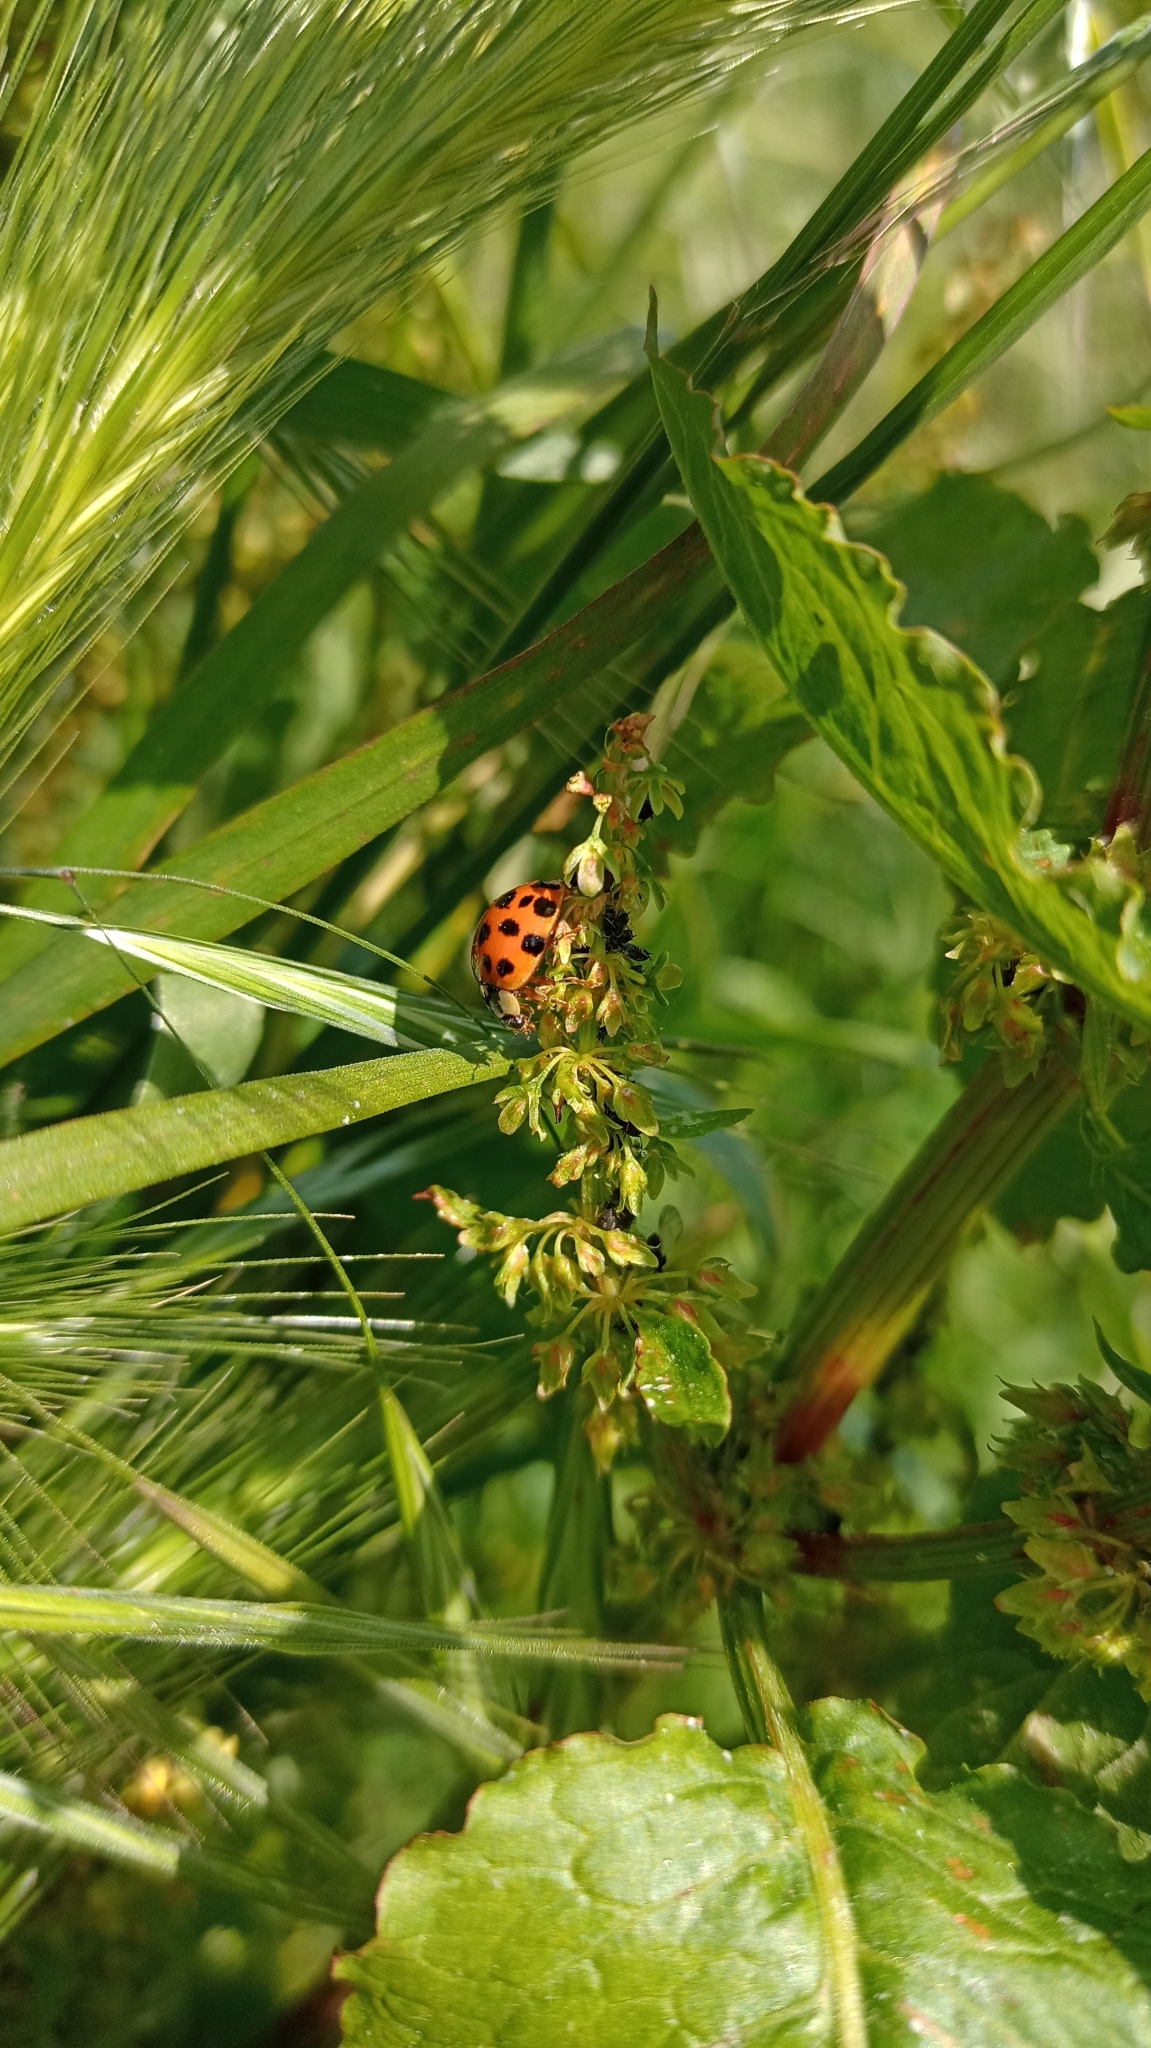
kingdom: Animalia
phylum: Arthropoda
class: Insecta
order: Coleoptera
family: Coccinellidae
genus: Harmonia
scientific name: Harmonia axyridis
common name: Harlequin ladybird
